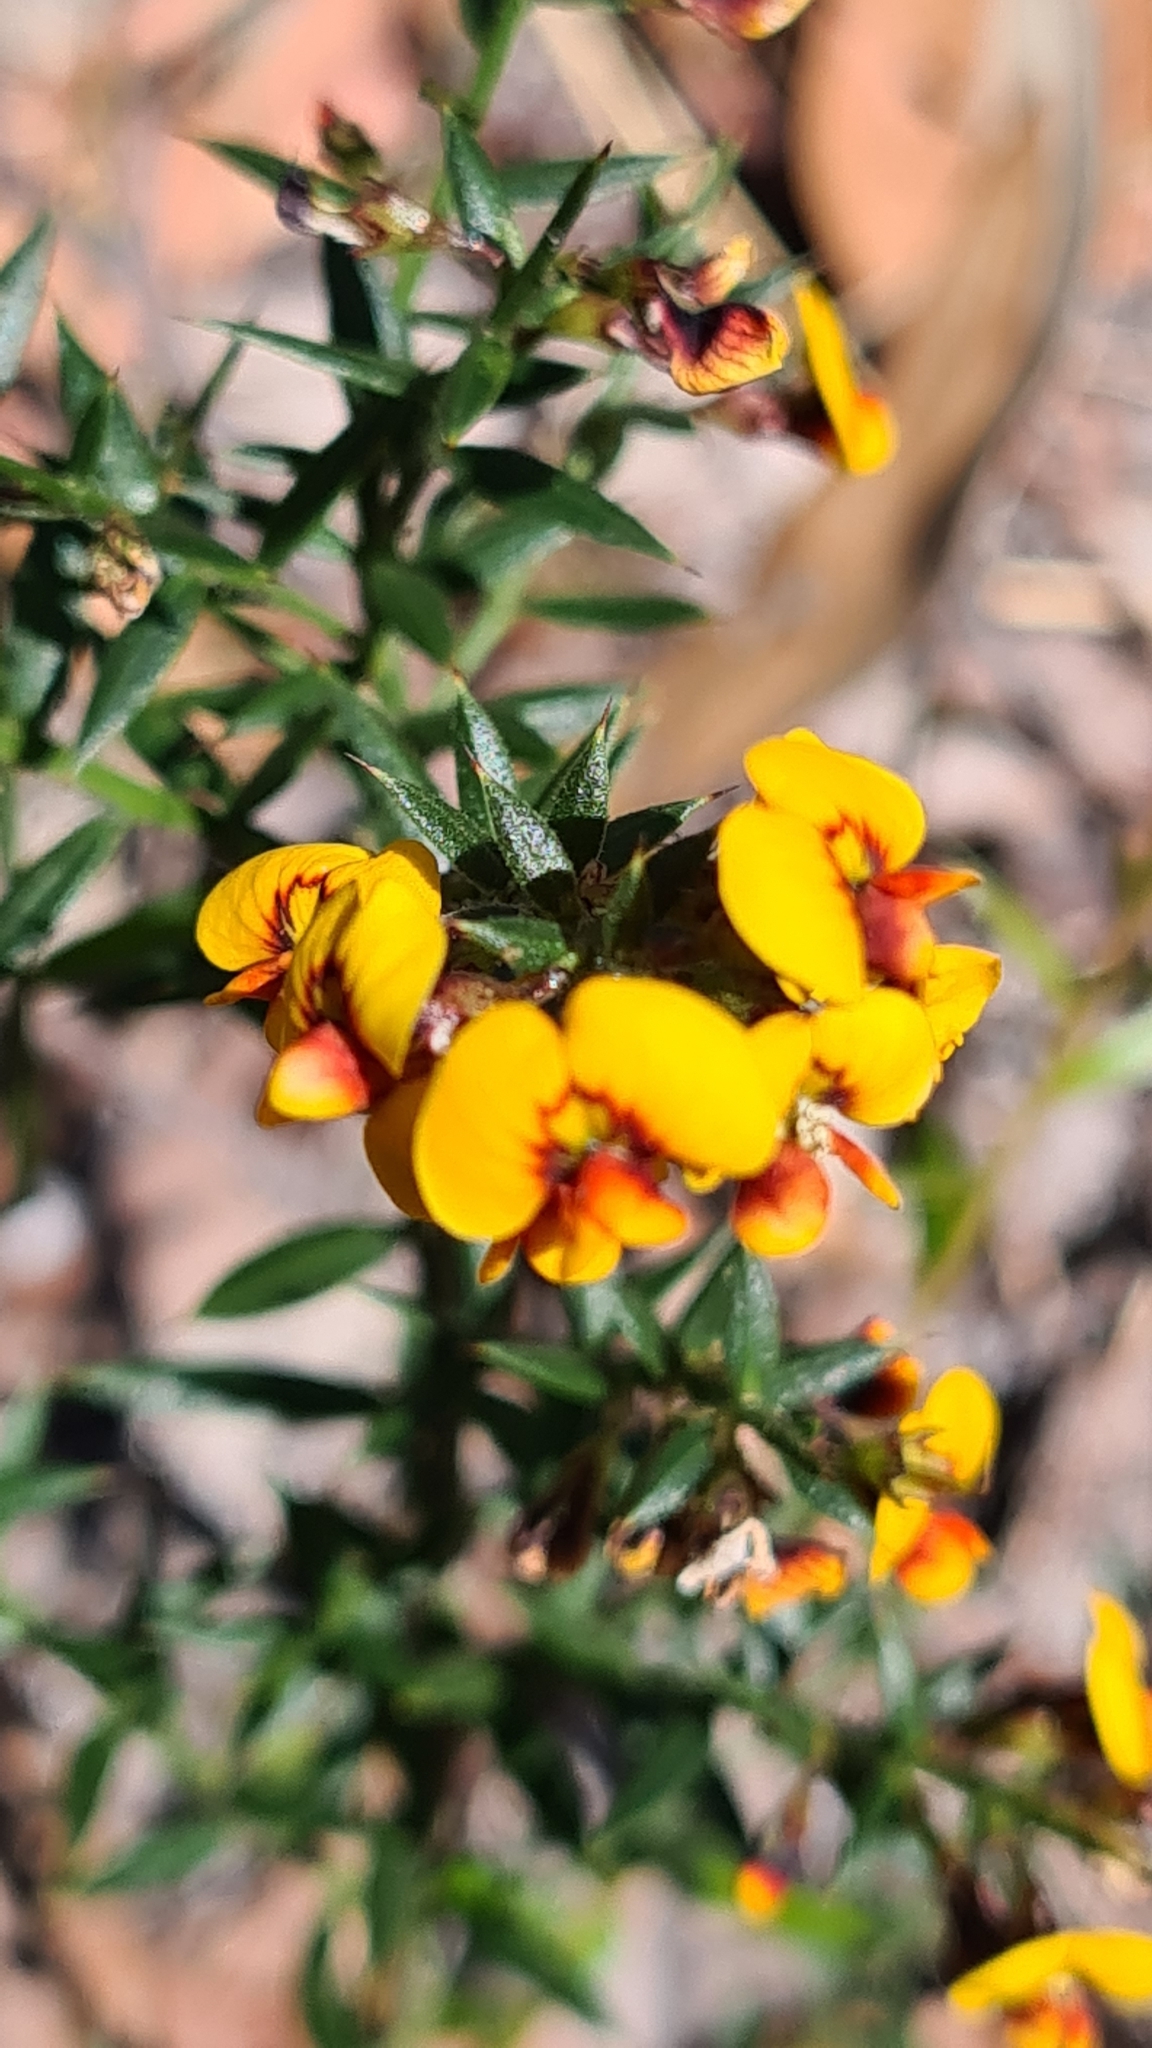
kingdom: Plantae
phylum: Tracheophyta
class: Magnoliopsida
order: Fabales
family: Fabaceae
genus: Daviesia
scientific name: Daviesia ulicifolia
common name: Gorse bitter-pea
